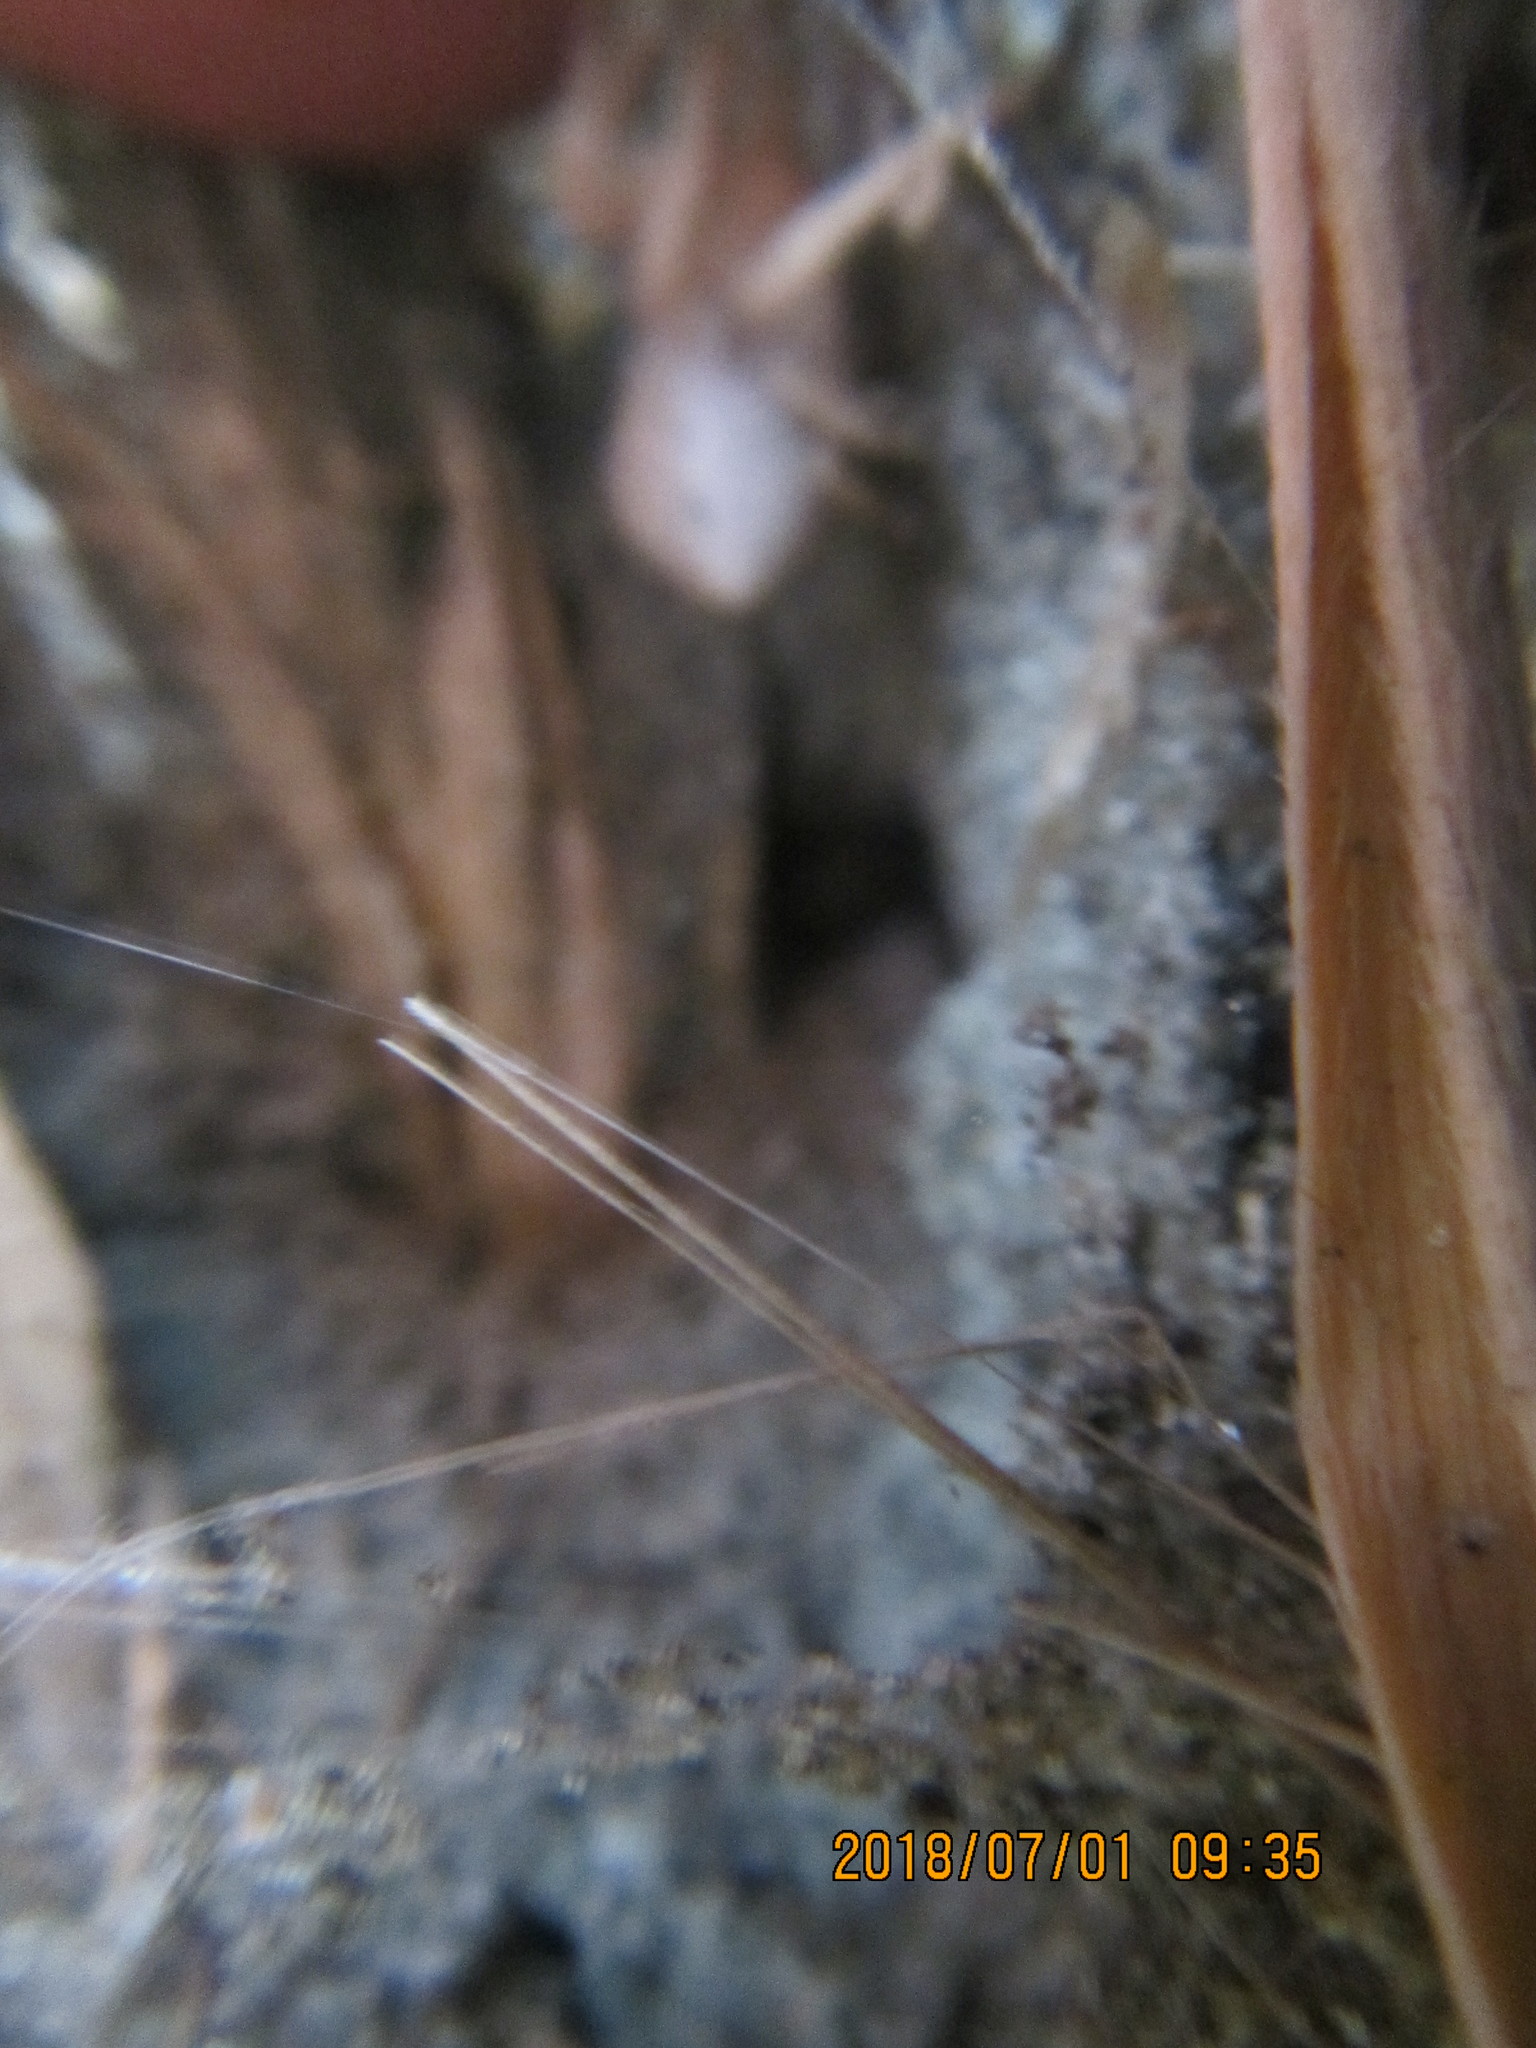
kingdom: Animalia
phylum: Arthropoda
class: Arachnida
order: Araneae
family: Thomisidae
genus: Sidymella
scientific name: Sidymella trapezia
